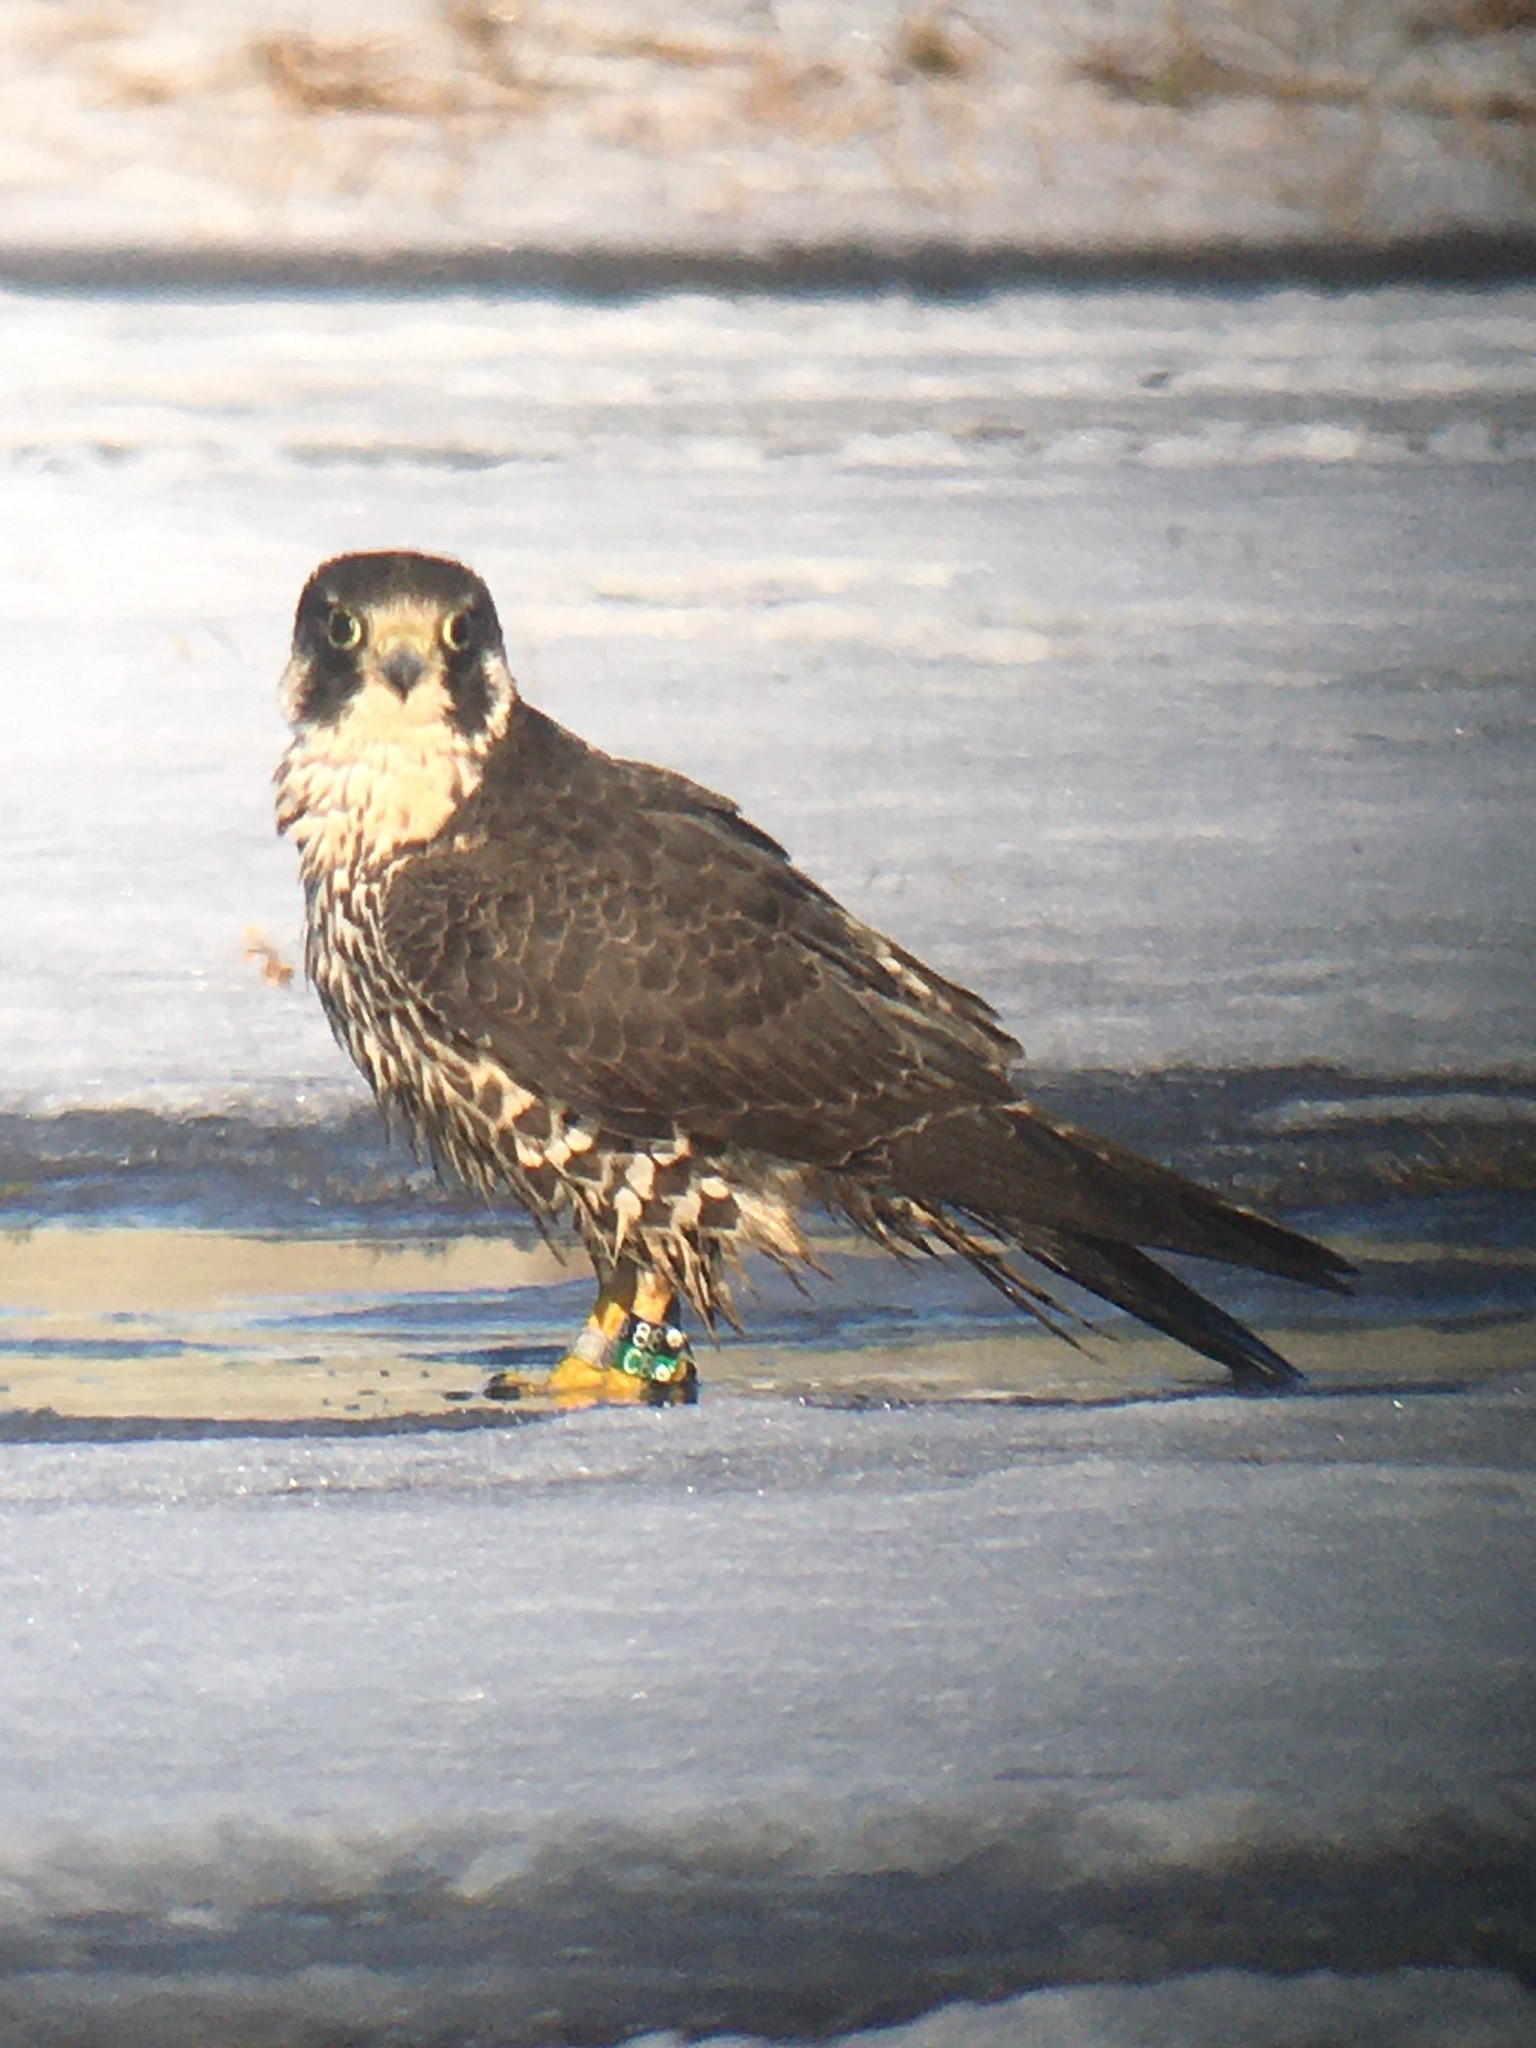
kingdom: Animalia
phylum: Chordata
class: Aves
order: Falconiformes
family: Falconidae
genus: Falco
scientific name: Falco peregrinus
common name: Peregrine falcon
